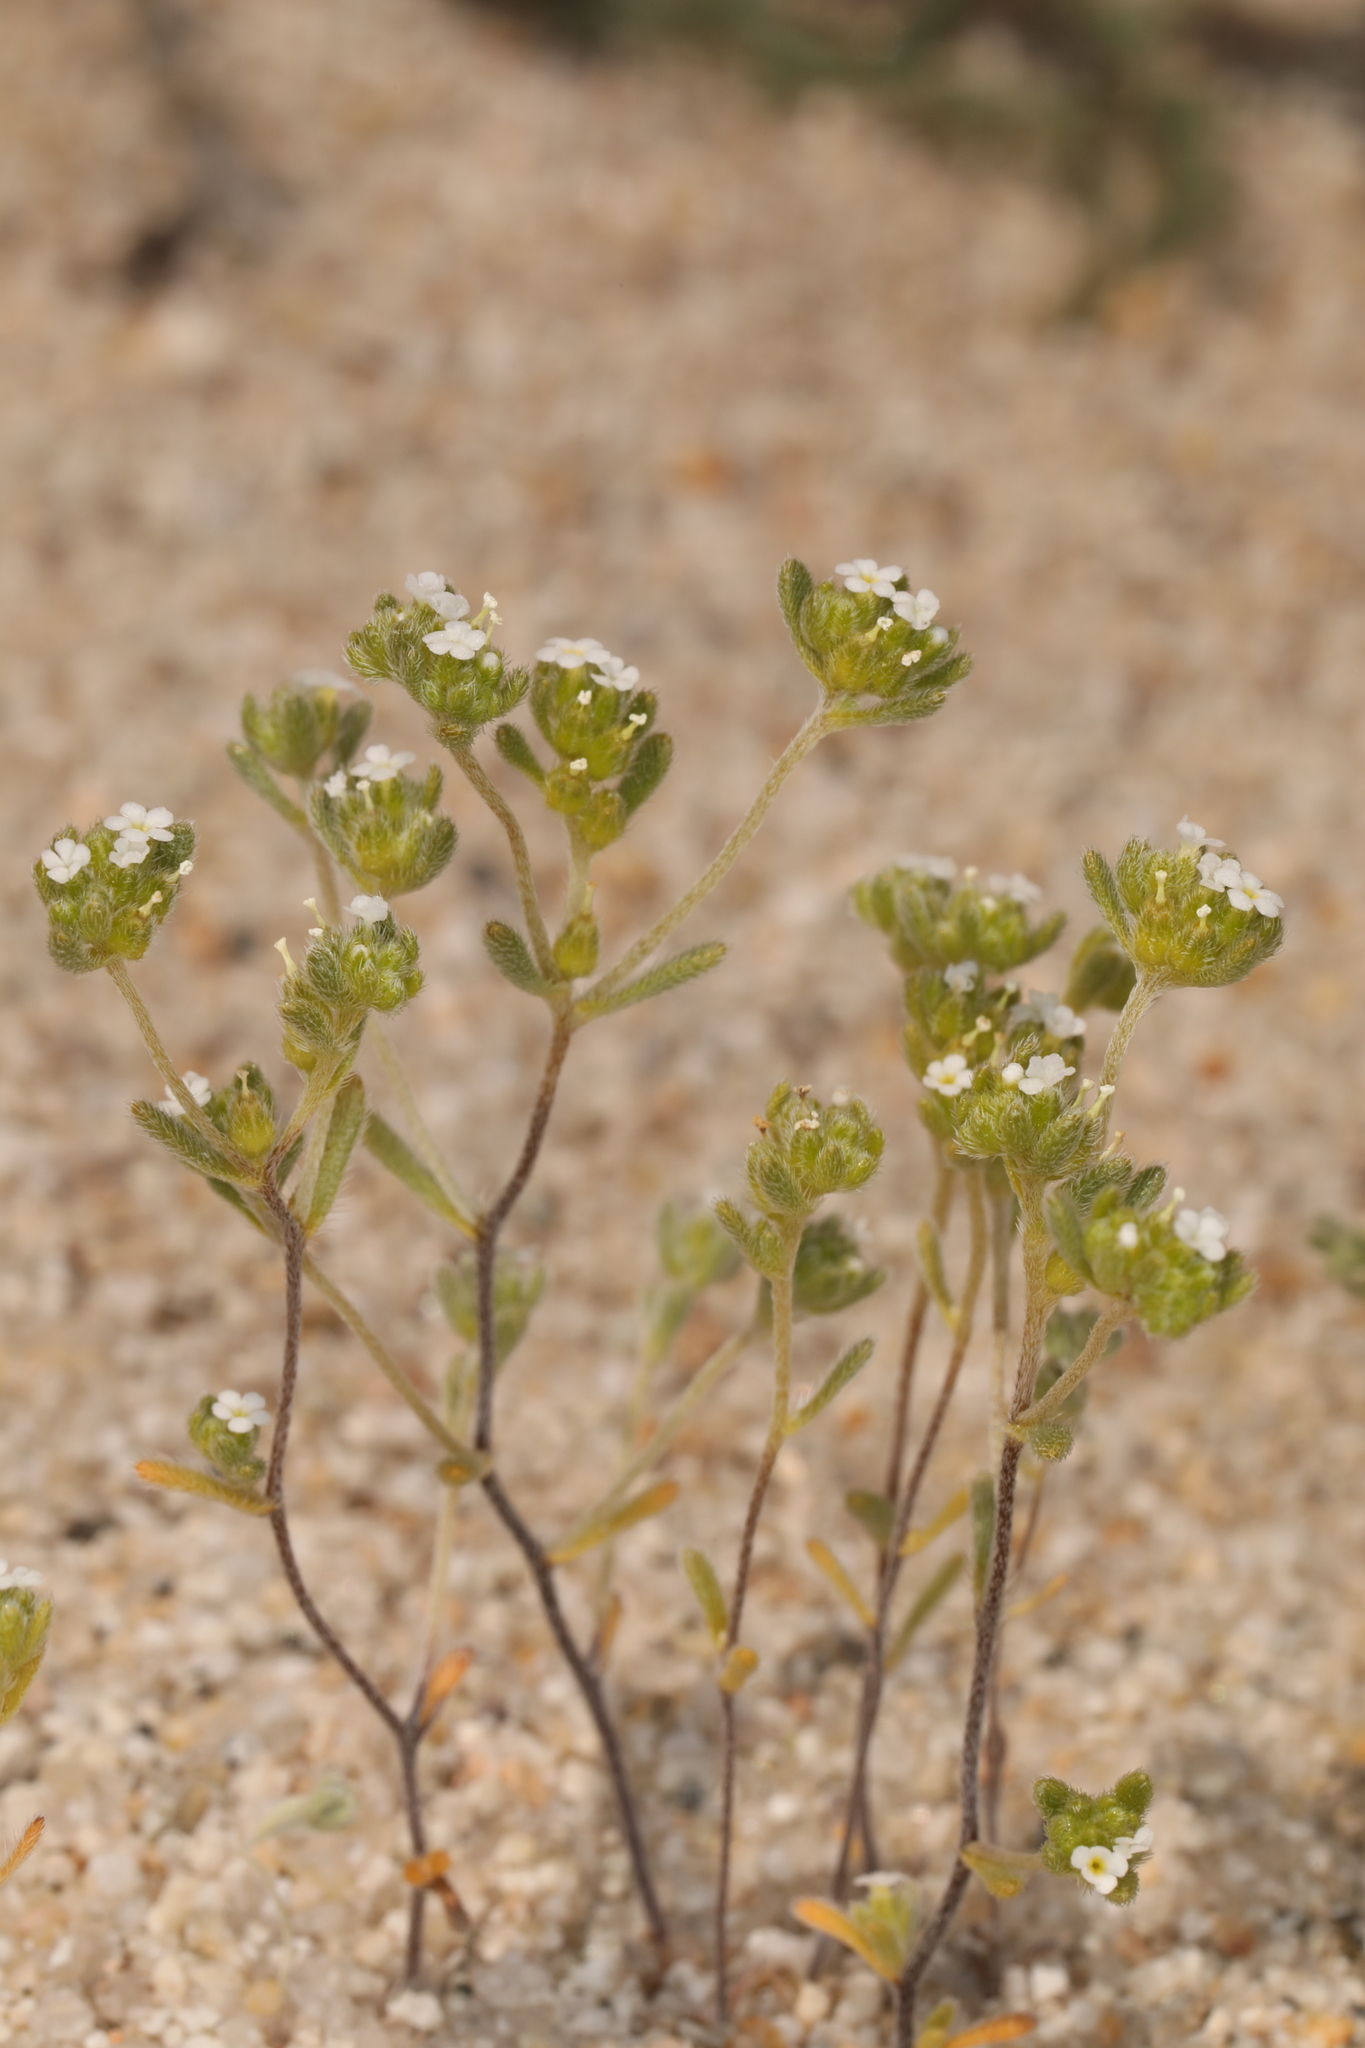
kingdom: Plantae
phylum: Tracheophyta
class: Magnoliopsida
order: Boraginales
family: Boraginaceae
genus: Eremocarya
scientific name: Eremocarya micrantha
